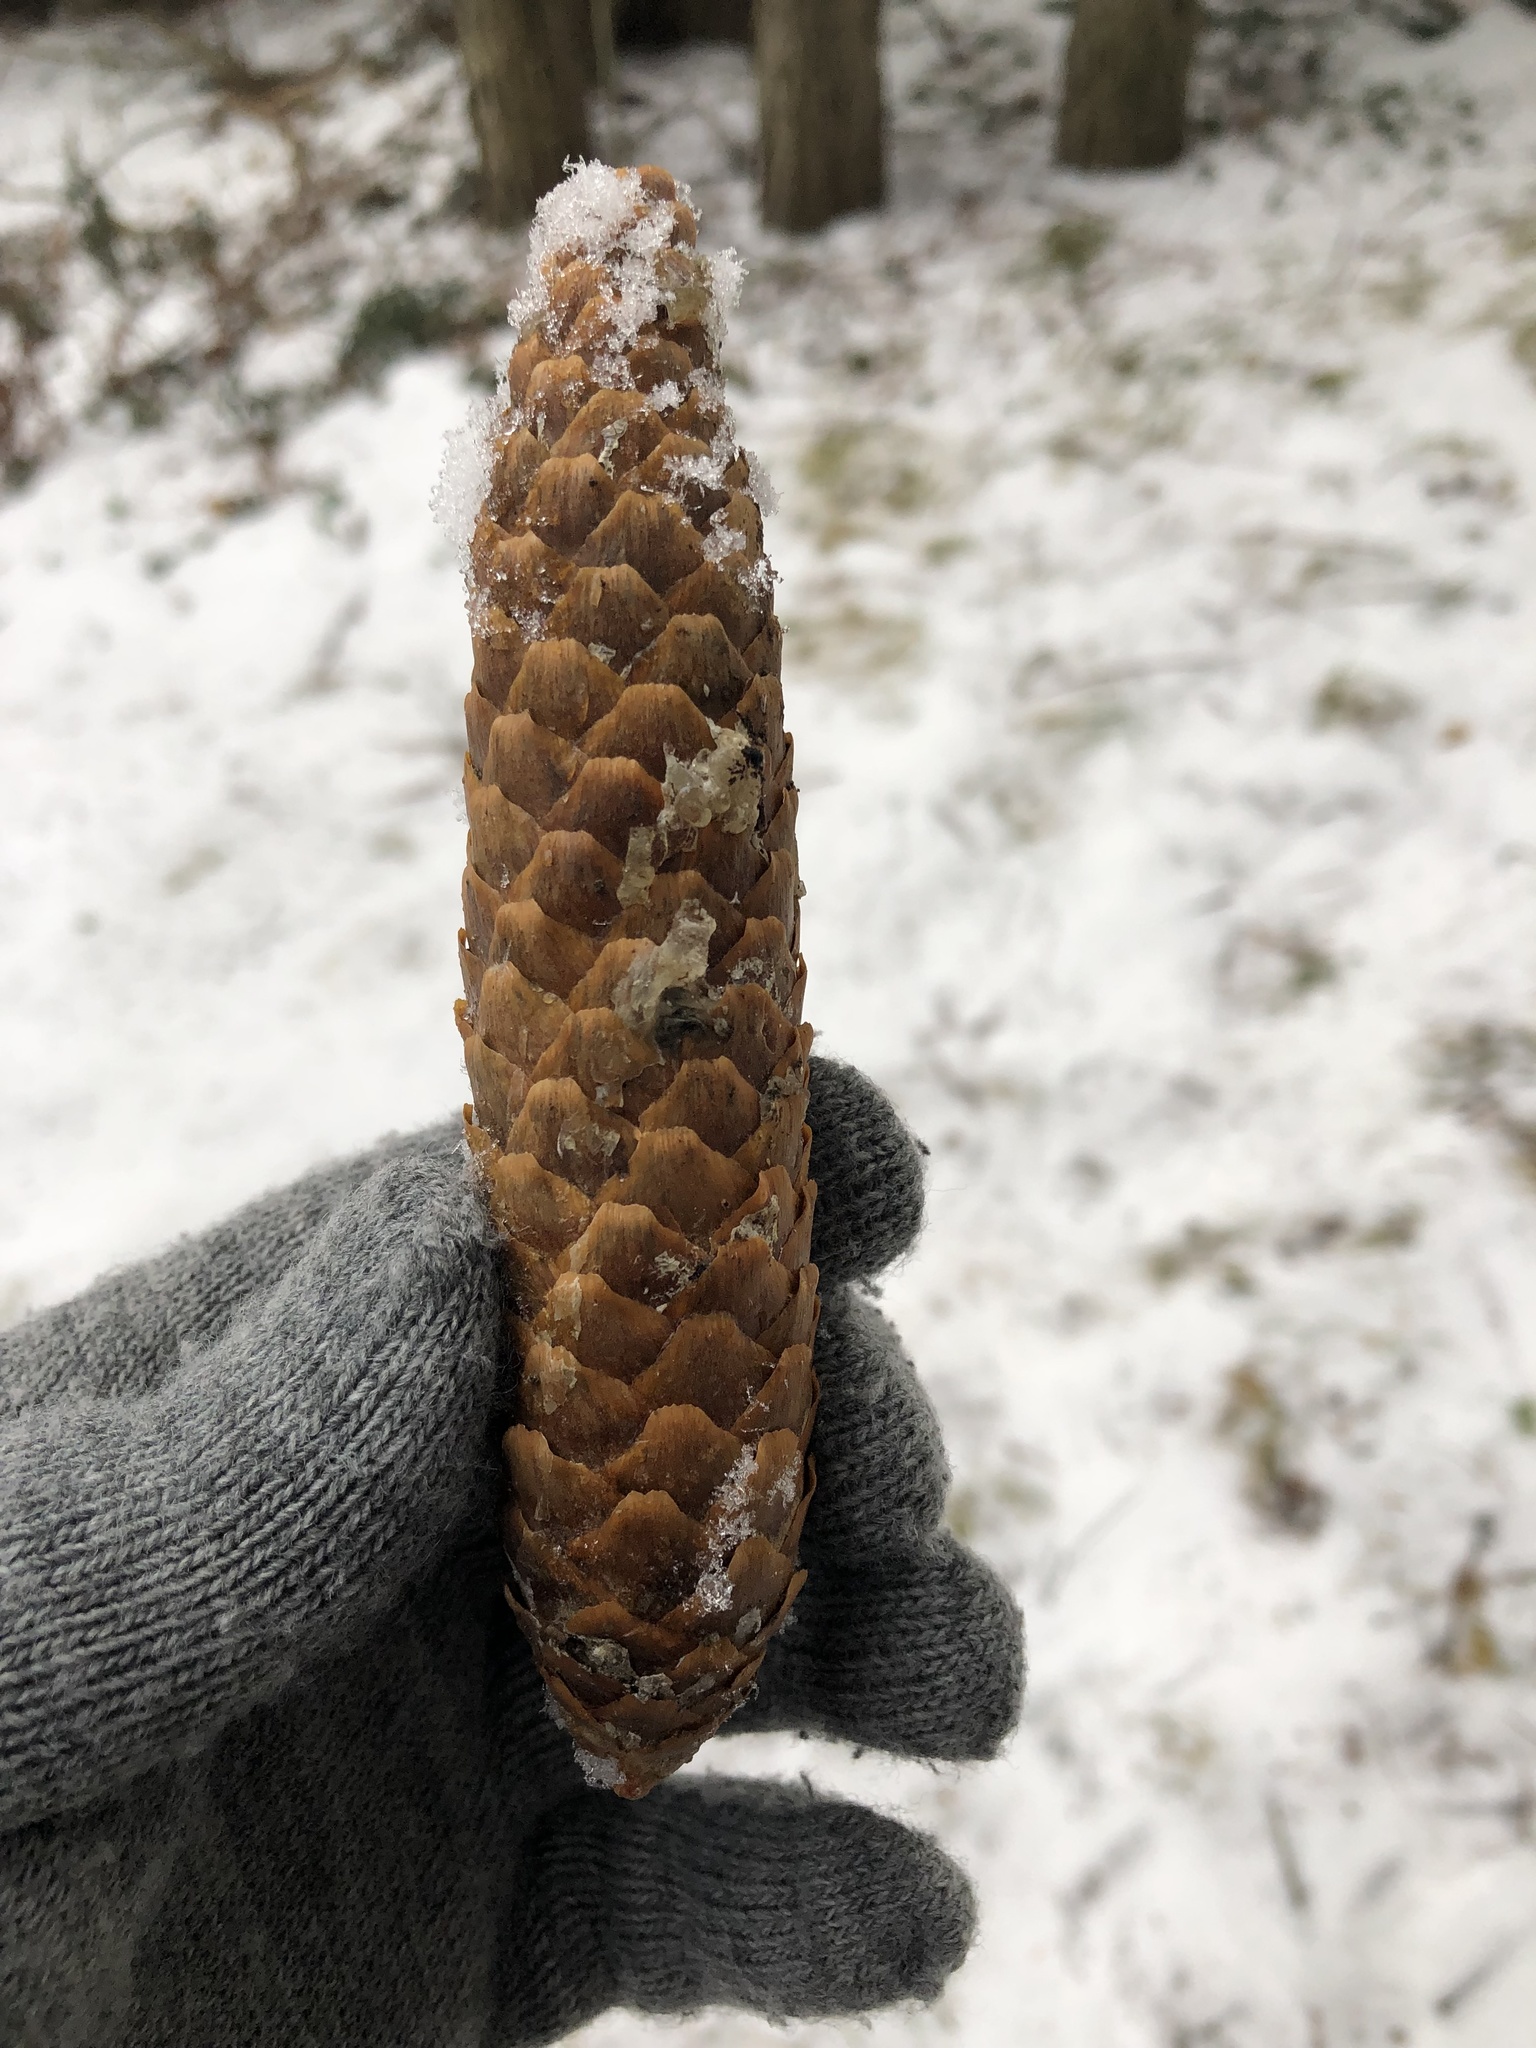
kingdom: Plantae
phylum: Tracheophyta
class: Pinopsida
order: Pinales
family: Pinaceae
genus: Picea
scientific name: Picea abies
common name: Norway spruce
